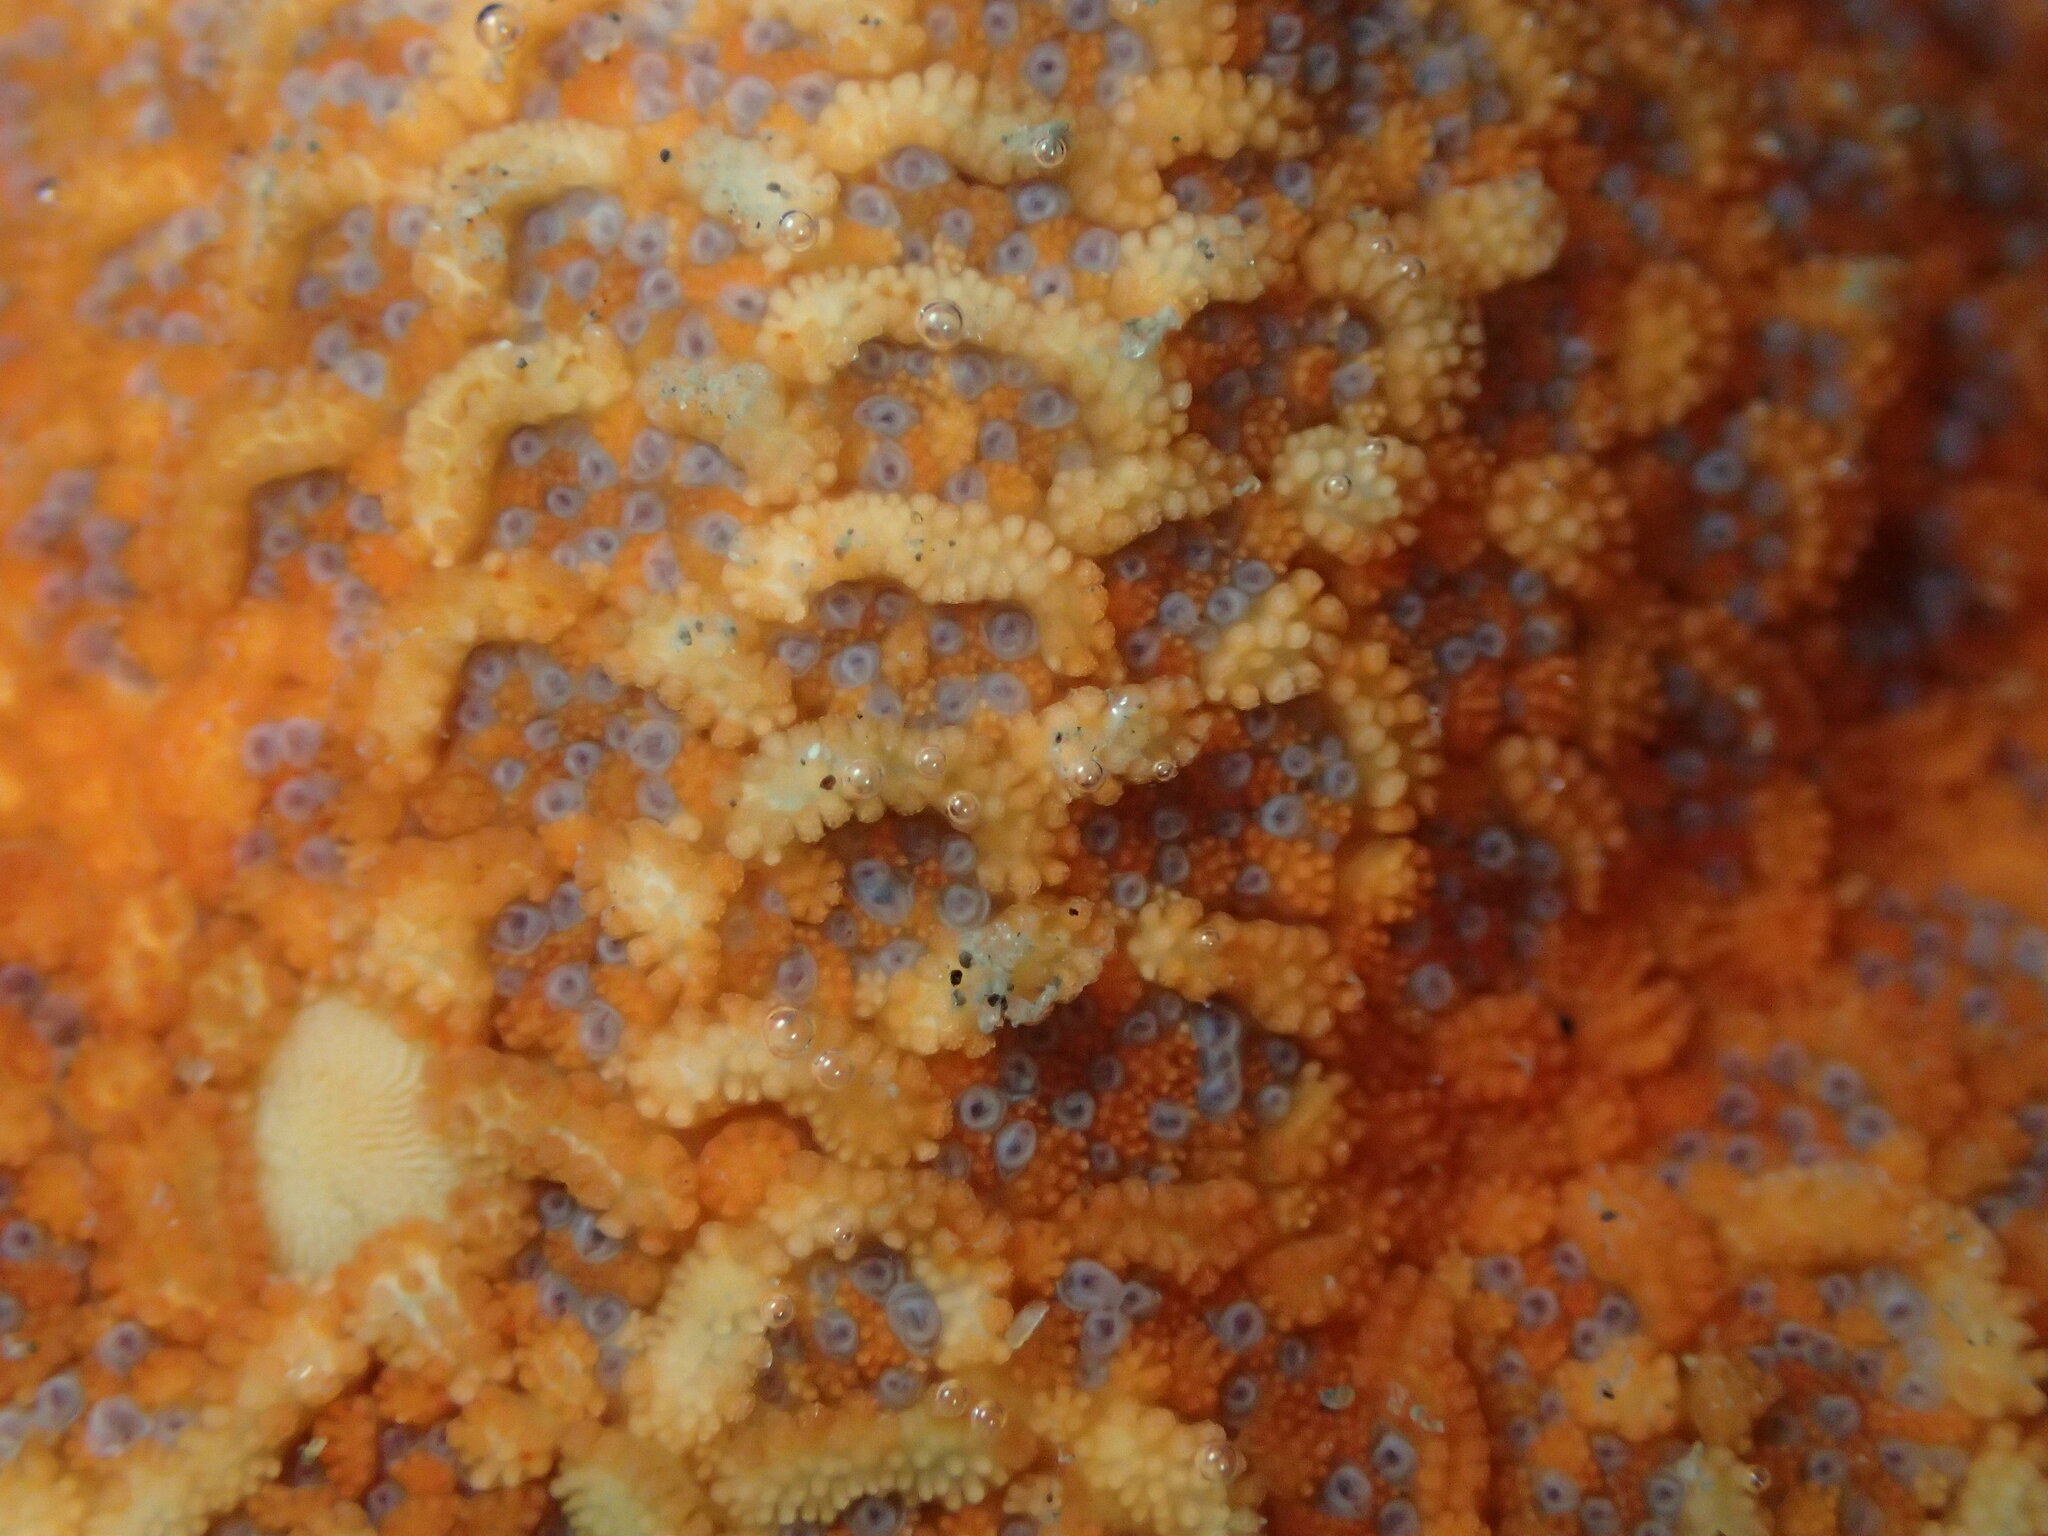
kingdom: Animalia
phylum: Echinodermata
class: Asteroidea
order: Valvatida
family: Asterinidae
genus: Patiria
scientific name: Patiria miniata
